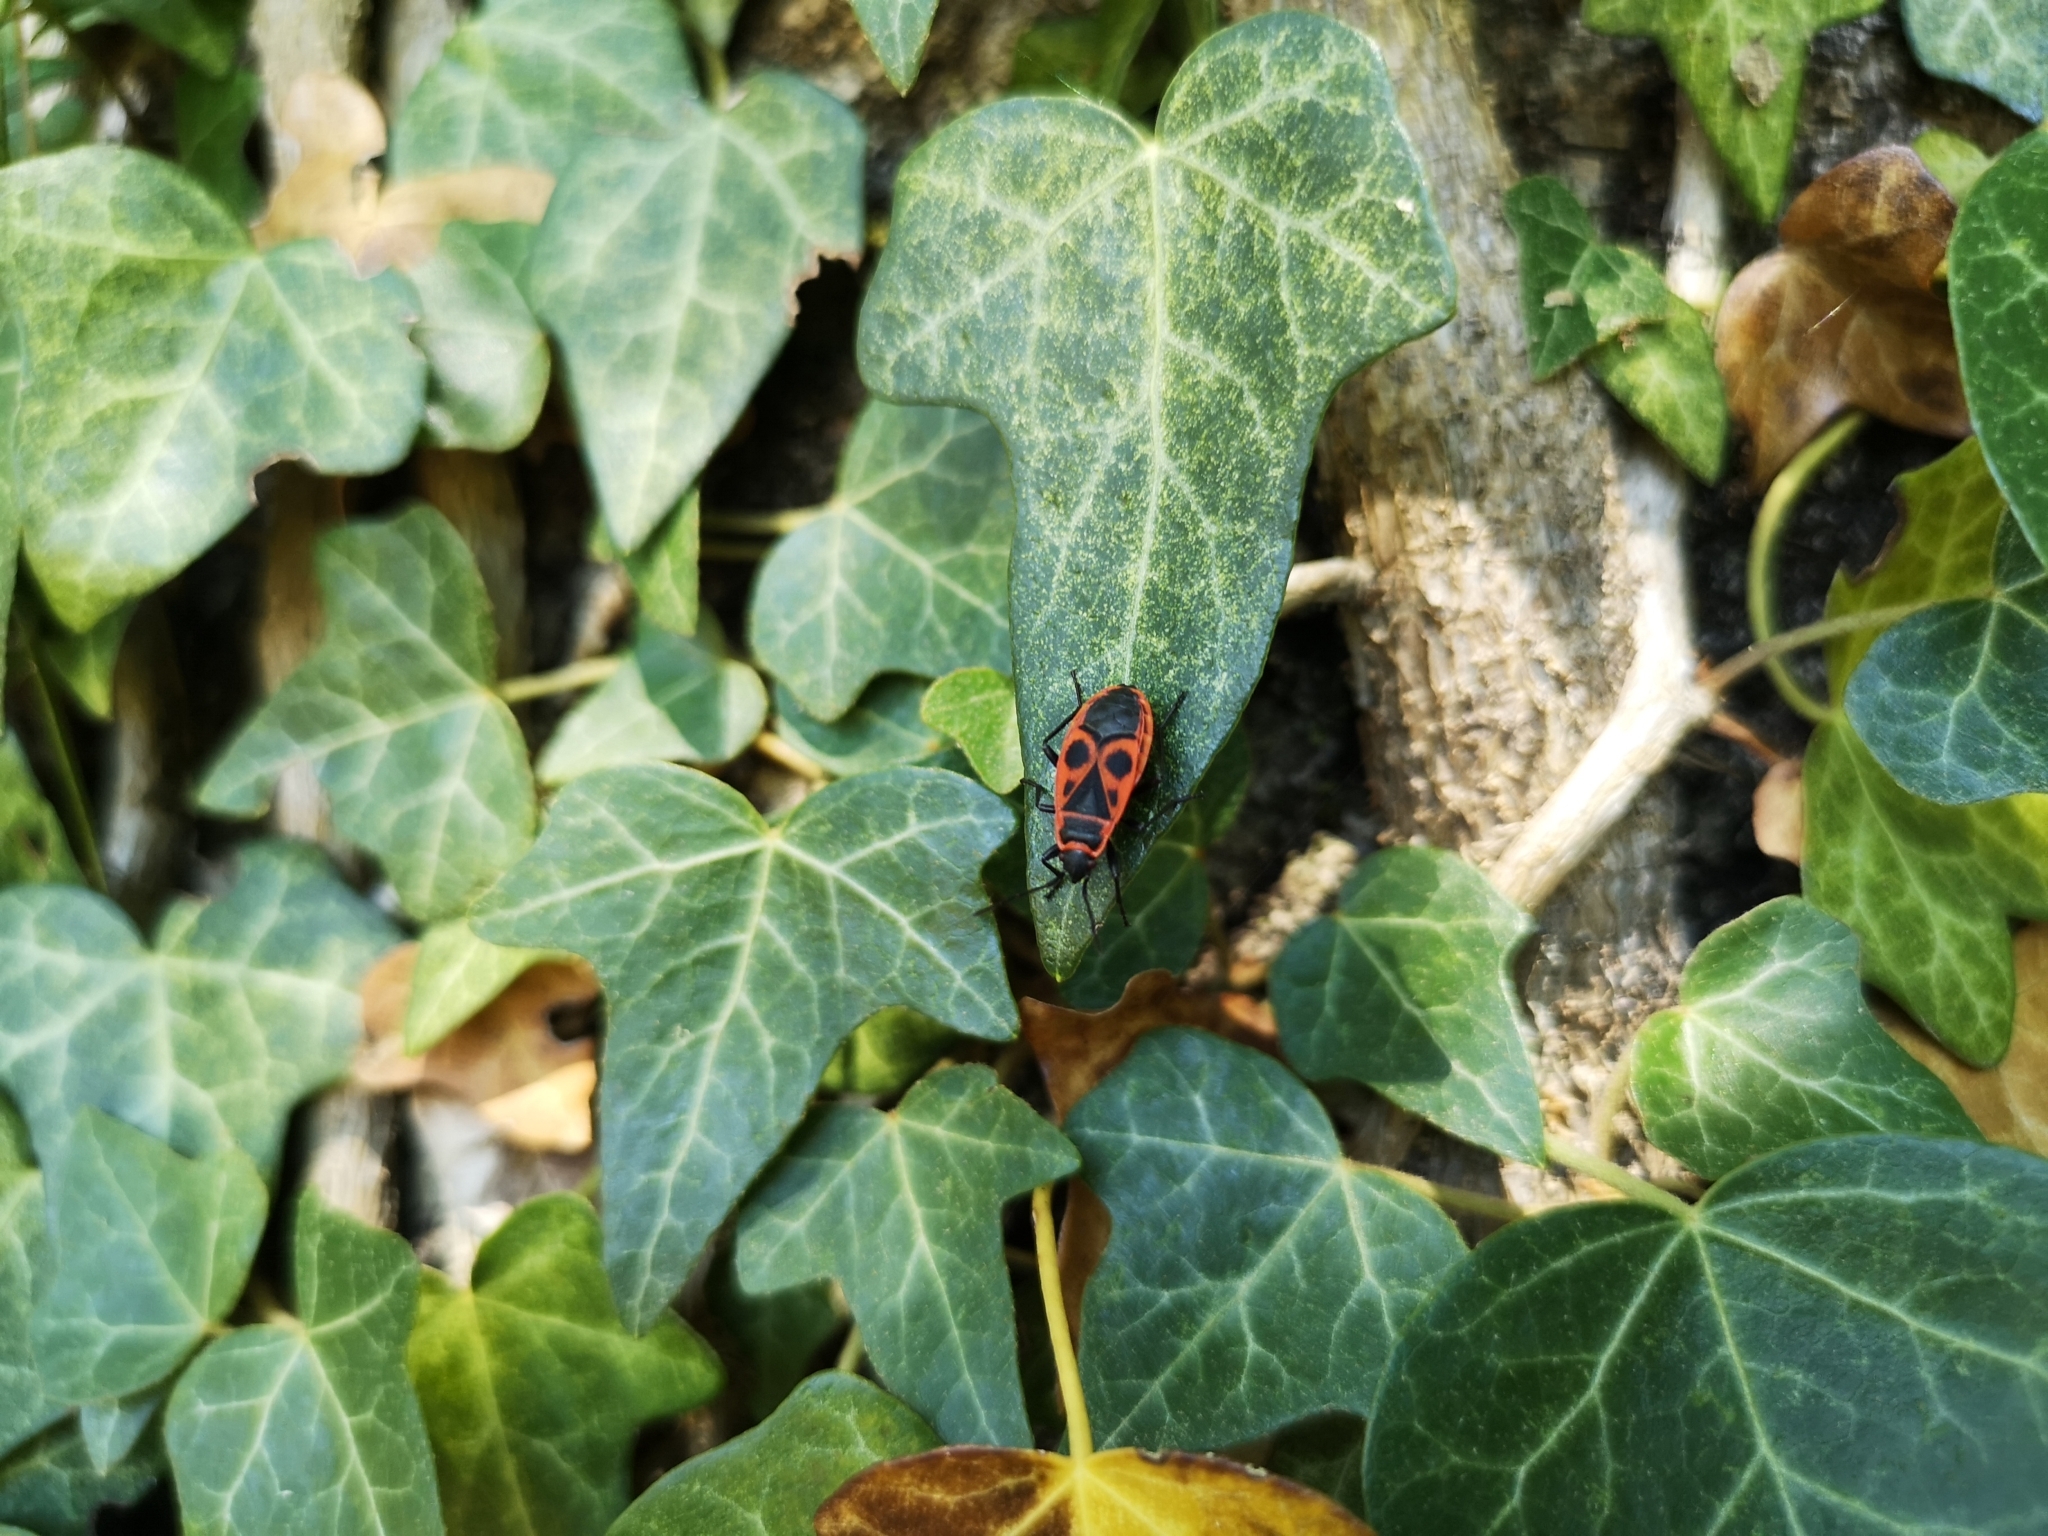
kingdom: Animalia
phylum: Arthropoda
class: Insecta
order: Hemiptera
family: Pyrrhocoridae
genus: Pyrrhocoris
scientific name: Pyrrhocoris apterus
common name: Firebug
